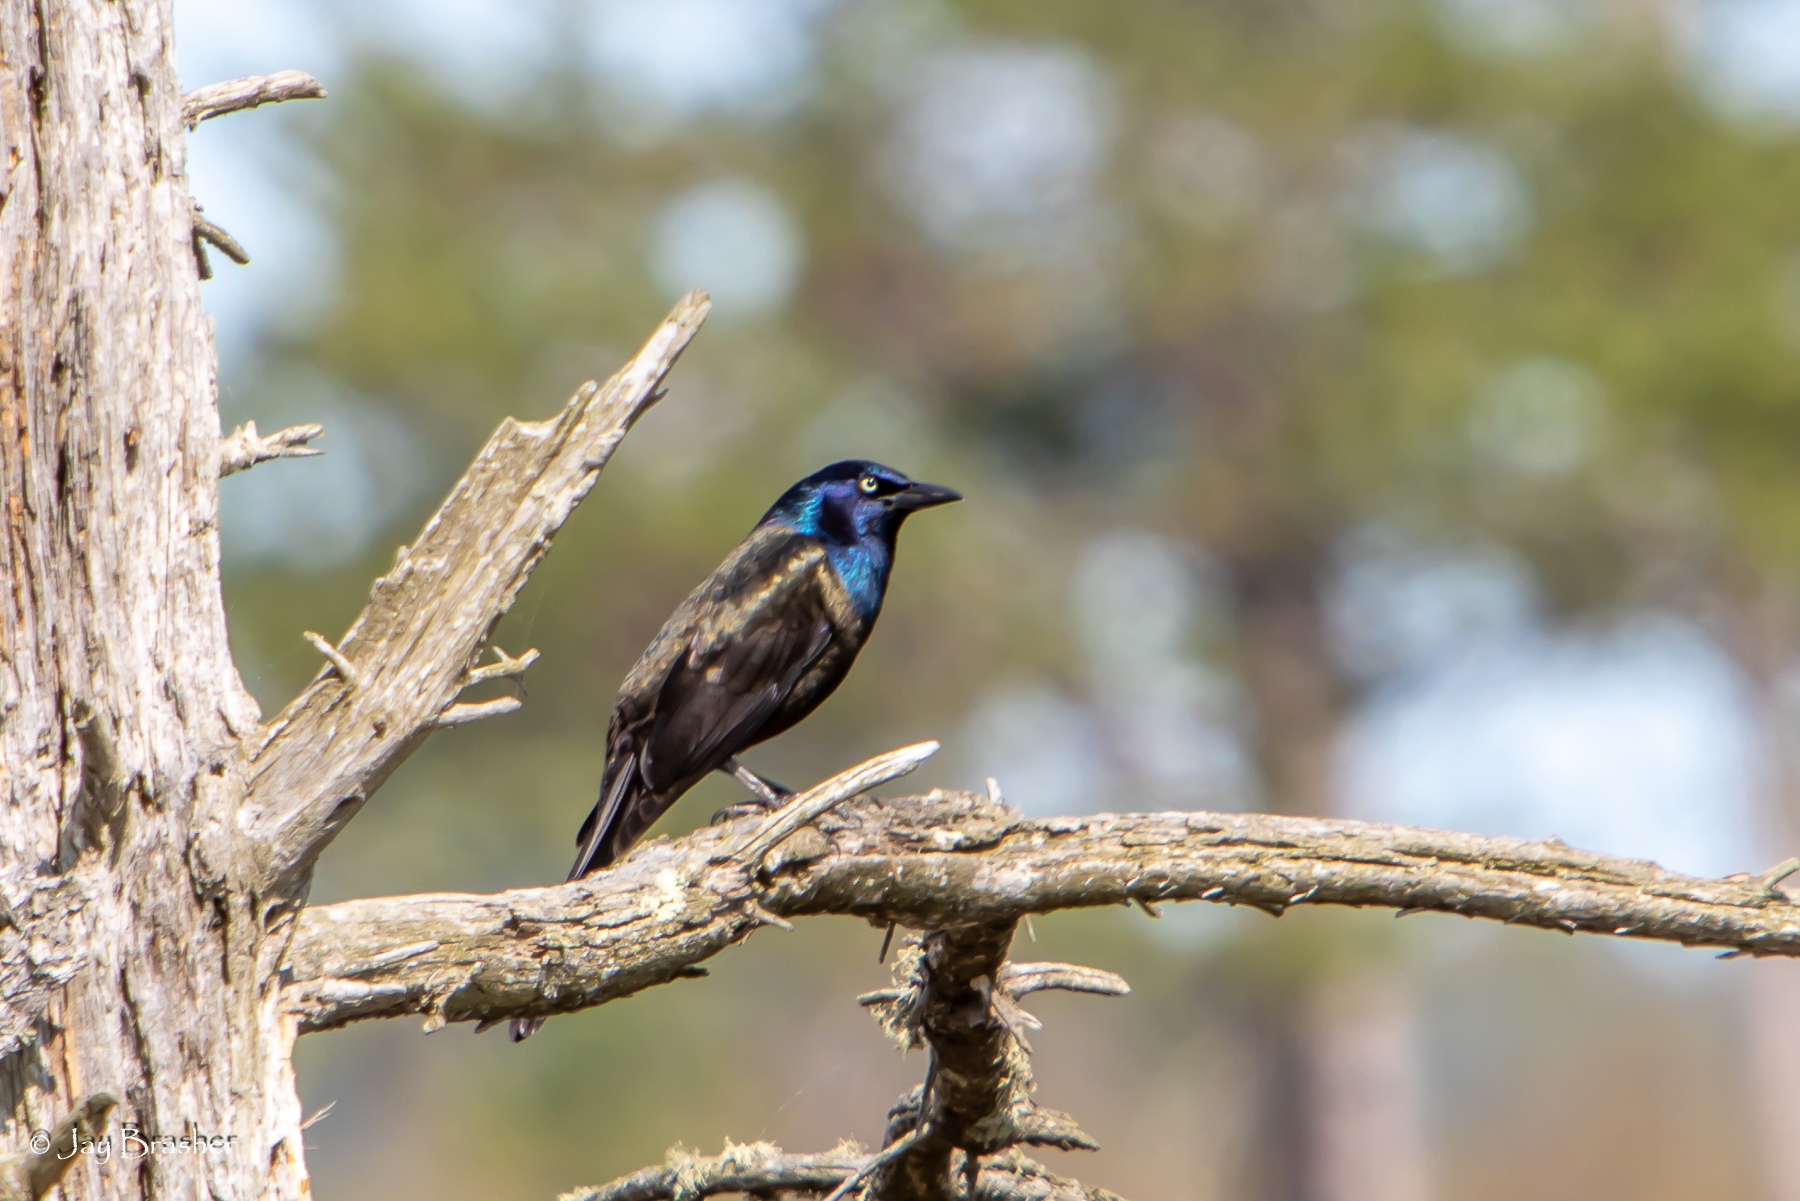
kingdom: Animalia
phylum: Chordata
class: Aves
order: Passeriformes
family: Icteridae
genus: Quiscalus
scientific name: Quiscalus quiscula
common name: Common grackle
